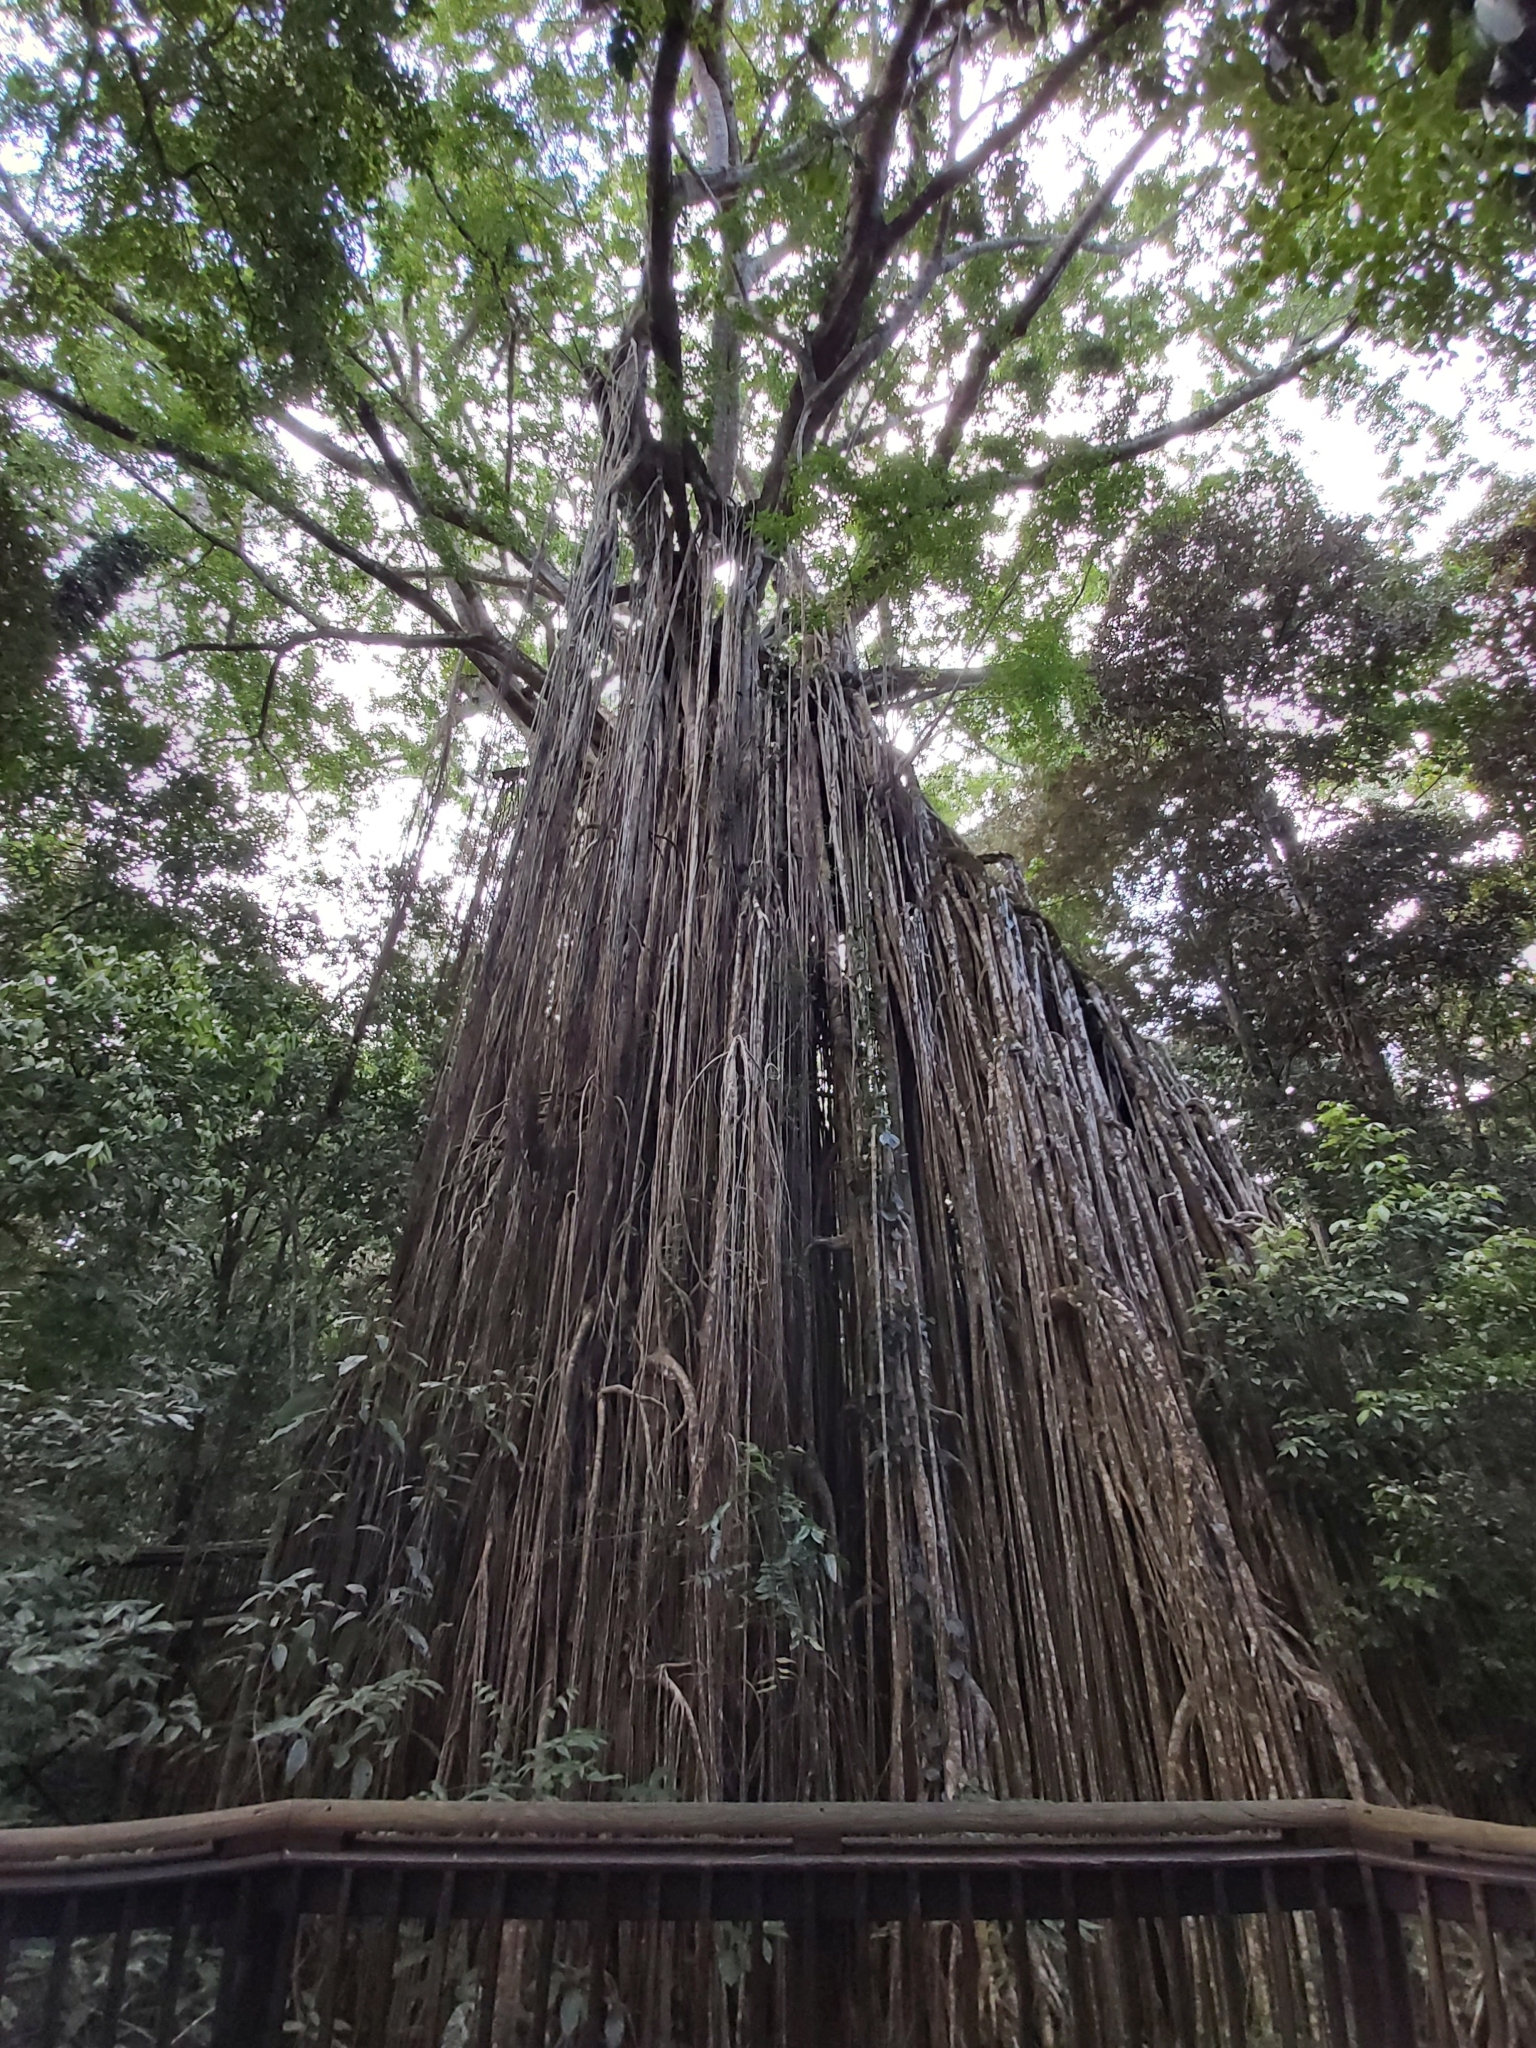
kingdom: Plantae
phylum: Tracheophyta
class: Magnoliopsida
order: Rosales
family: Moraceae
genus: Ficus
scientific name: Ficus virens
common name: Spotted fig
